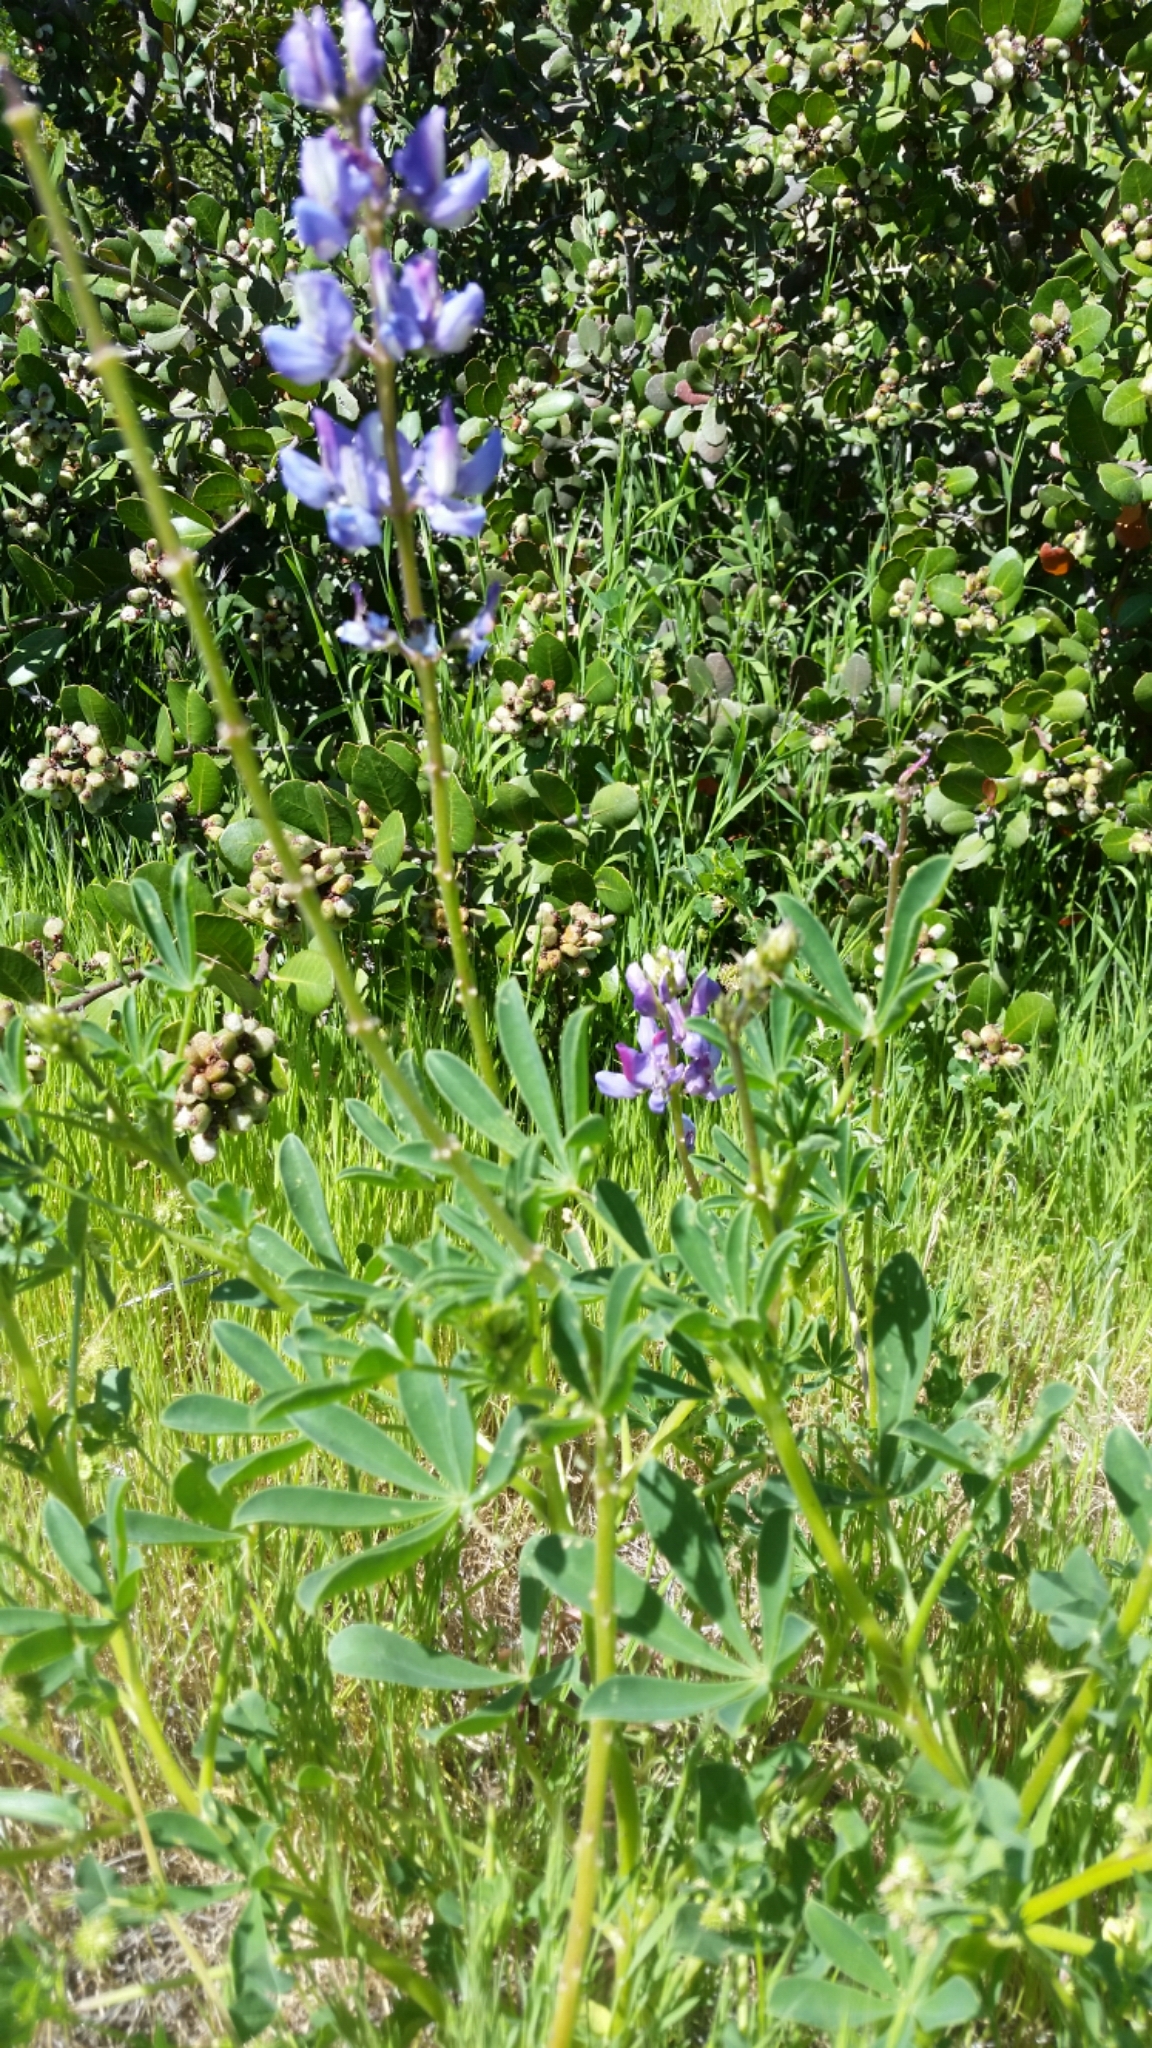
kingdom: Plantae
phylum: Tracheophyta
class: Magnoliopsida
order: Fabales
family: Fabaceae
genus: Lupinus
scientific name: Lupinus succulentus
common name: Arroyo lupine
